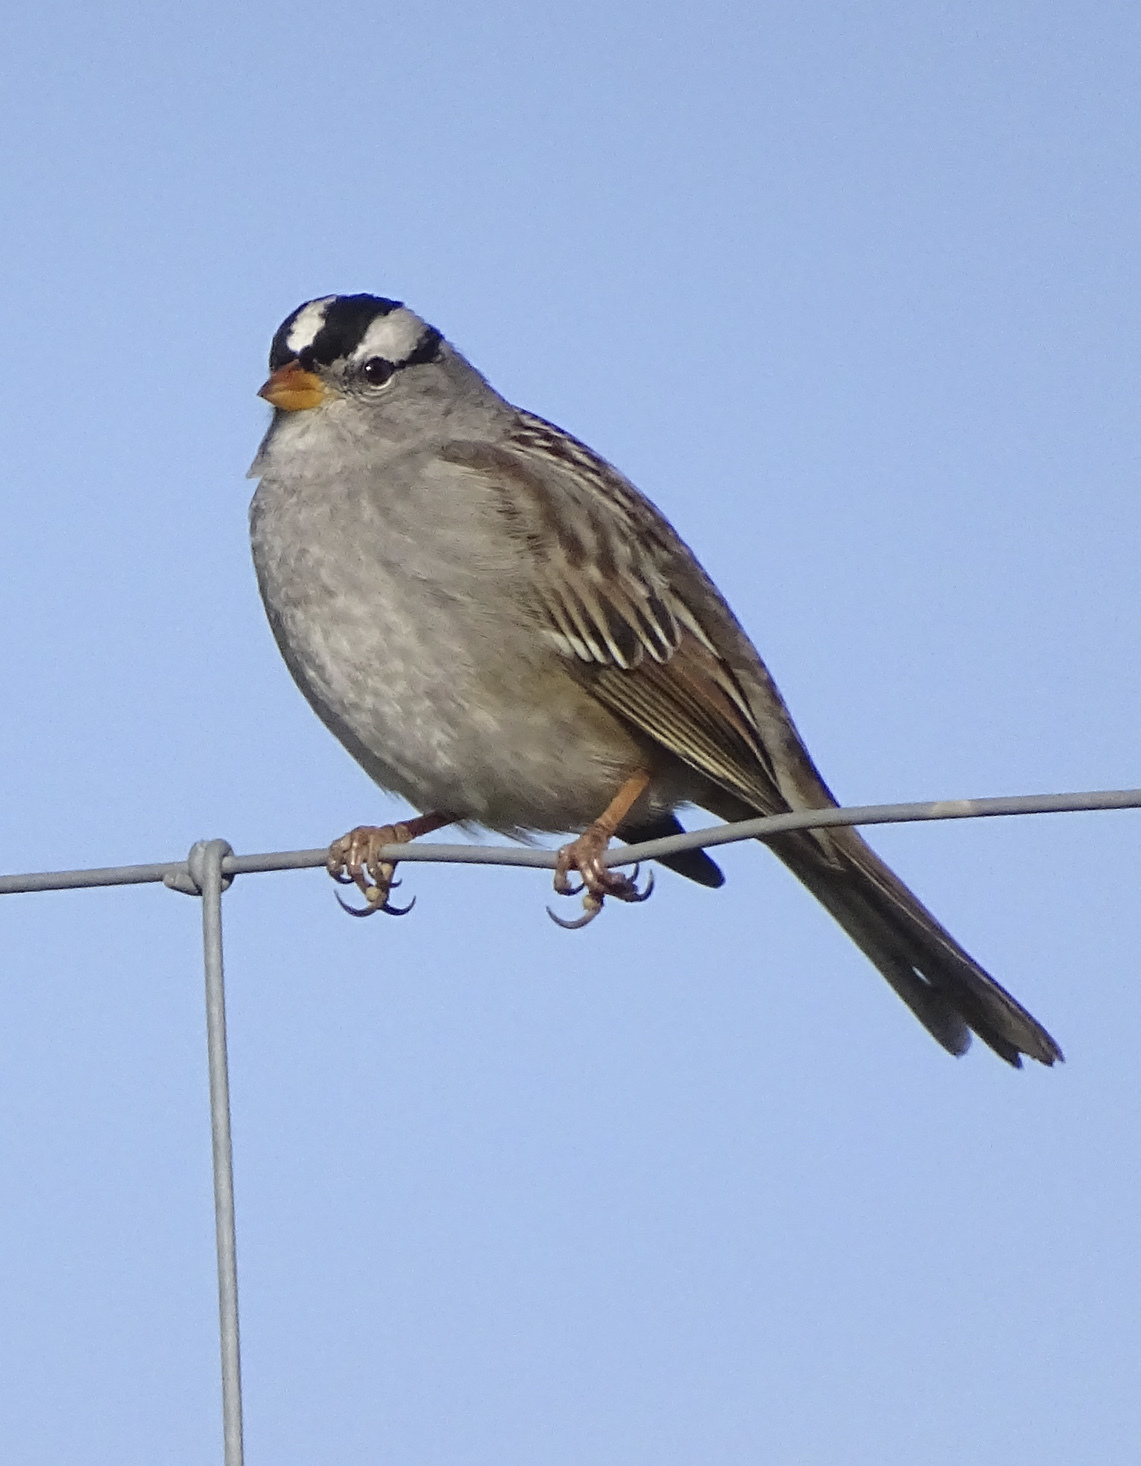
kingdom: Animalia
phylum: Chordata
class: Aves
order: Passeriformes
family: Passerellidae
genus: Zonotrichia
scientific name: Zonotrichia leucophrys
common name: White-crowned sparrow
